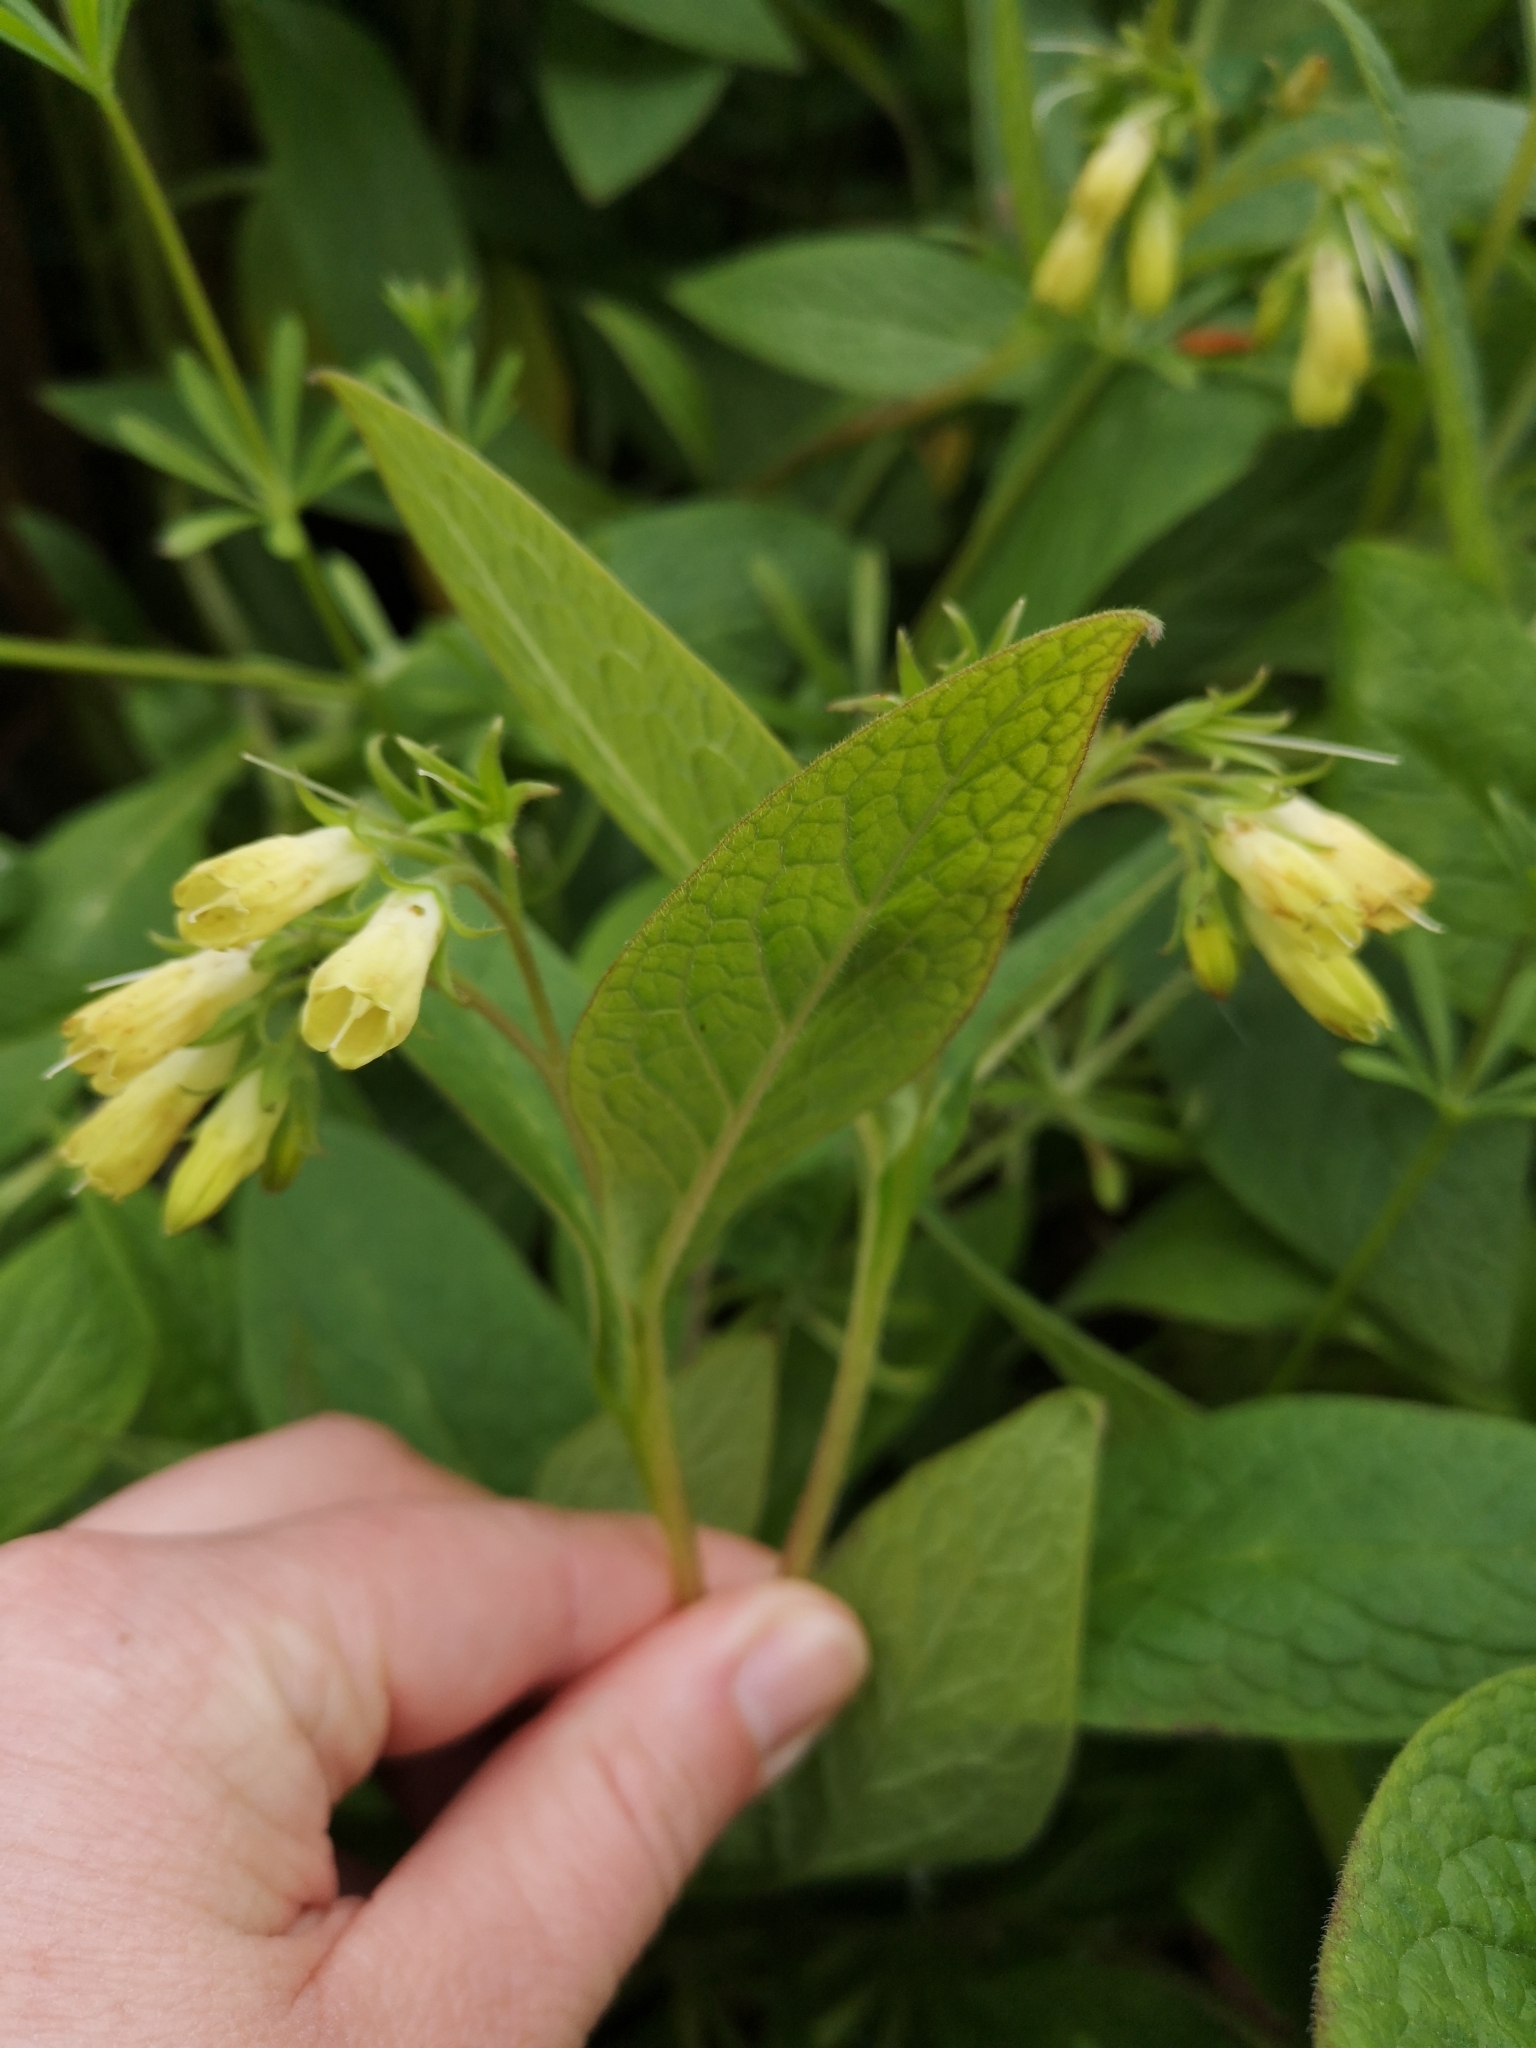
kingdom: Plantae
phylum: Tracheophyta
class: Magnoliopsida
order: Boraginales
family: Boraginaceae
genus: Symphytum
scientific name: Symphytum tuberosum
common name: Tuberous comfrey
